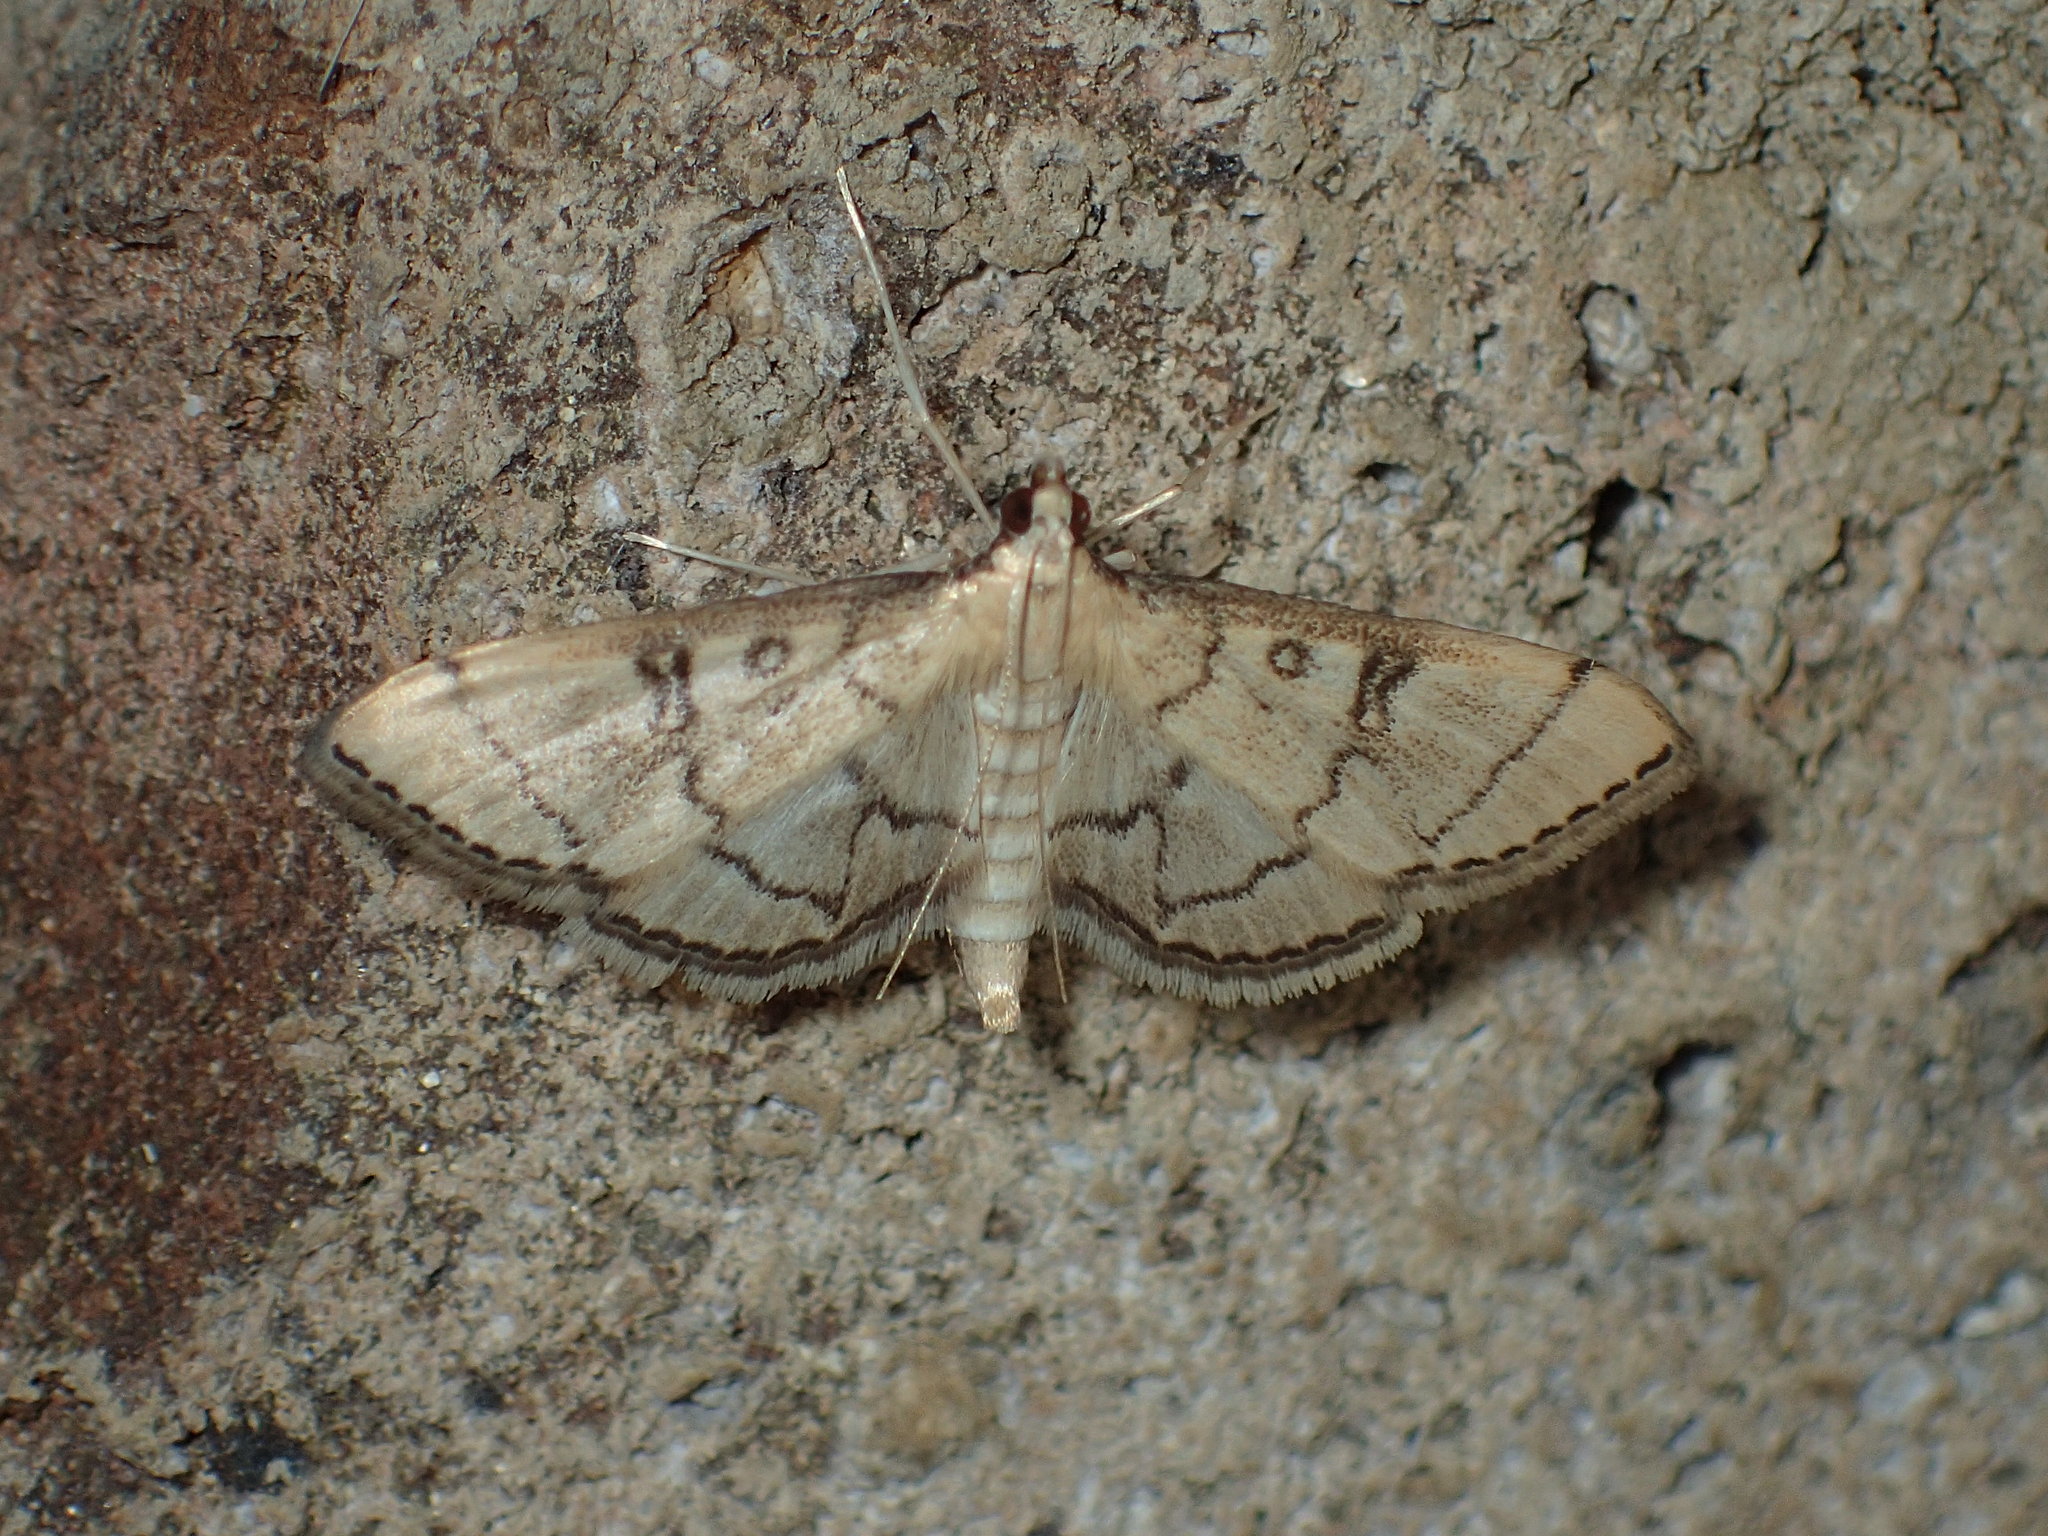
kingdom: Animalia
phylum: Arthropoda
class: Insecta
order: Lepidoptera
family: Crambidae
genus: Lamprosema
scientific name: Lamprosema Blepharomastix ranalis
